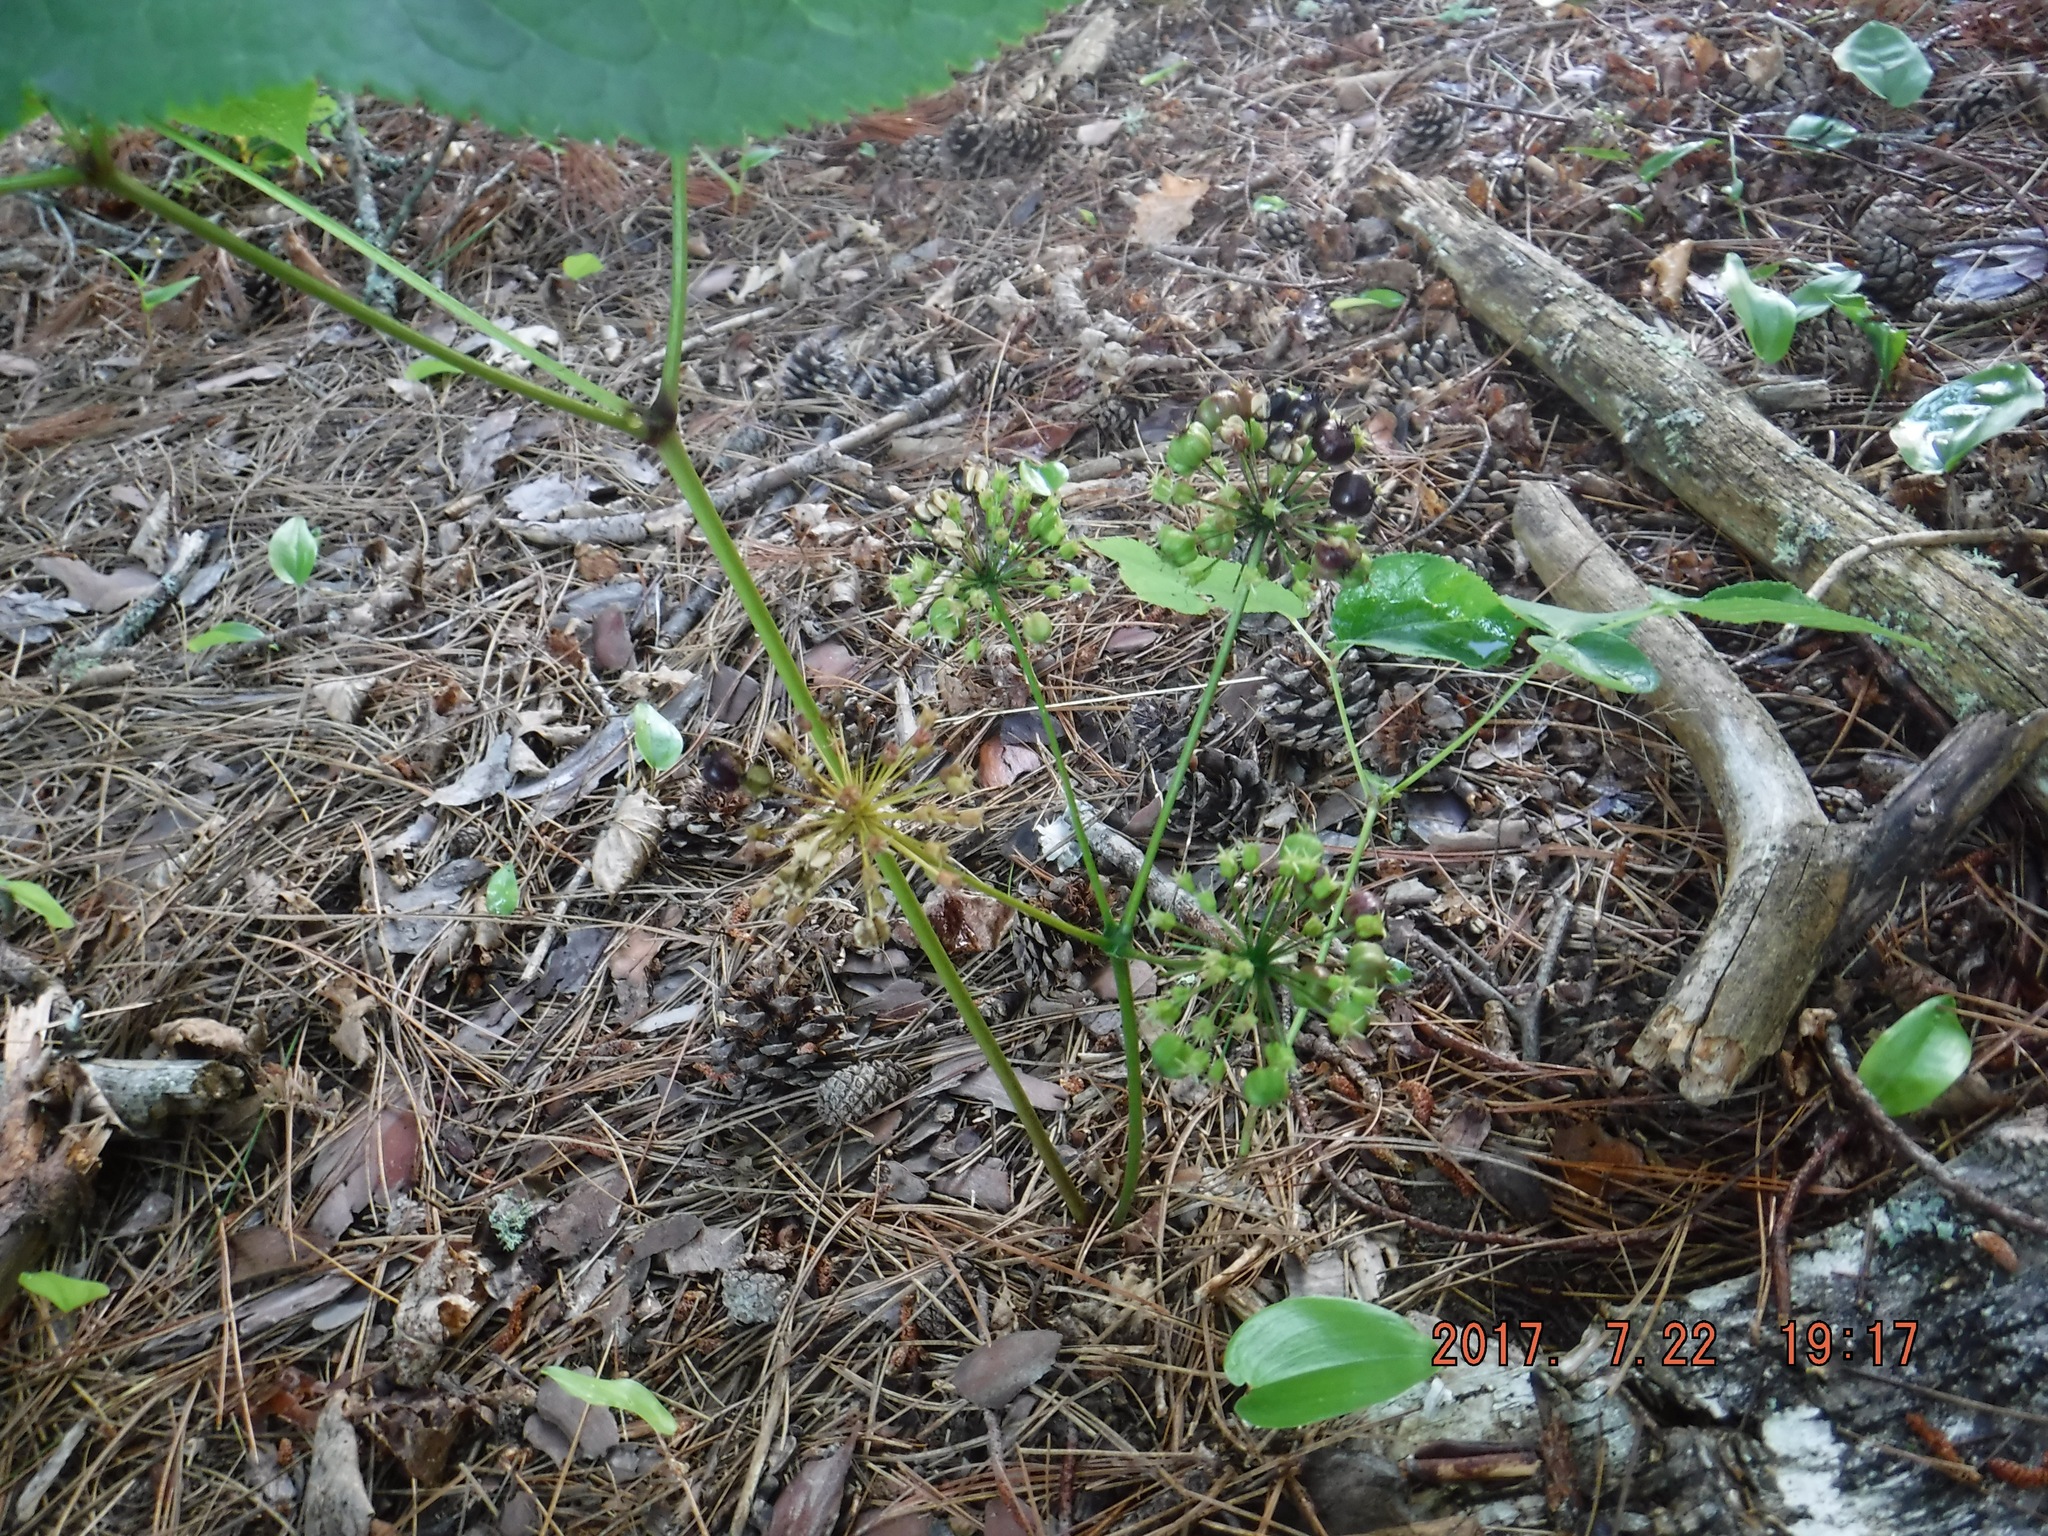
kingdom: Plantae
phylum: Tracheophyta
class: Magnoliopsida
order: Apiales
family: Araliaceae
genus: Aralia
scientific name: Aralia nudicaulis
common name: Wild sarsaparilla
